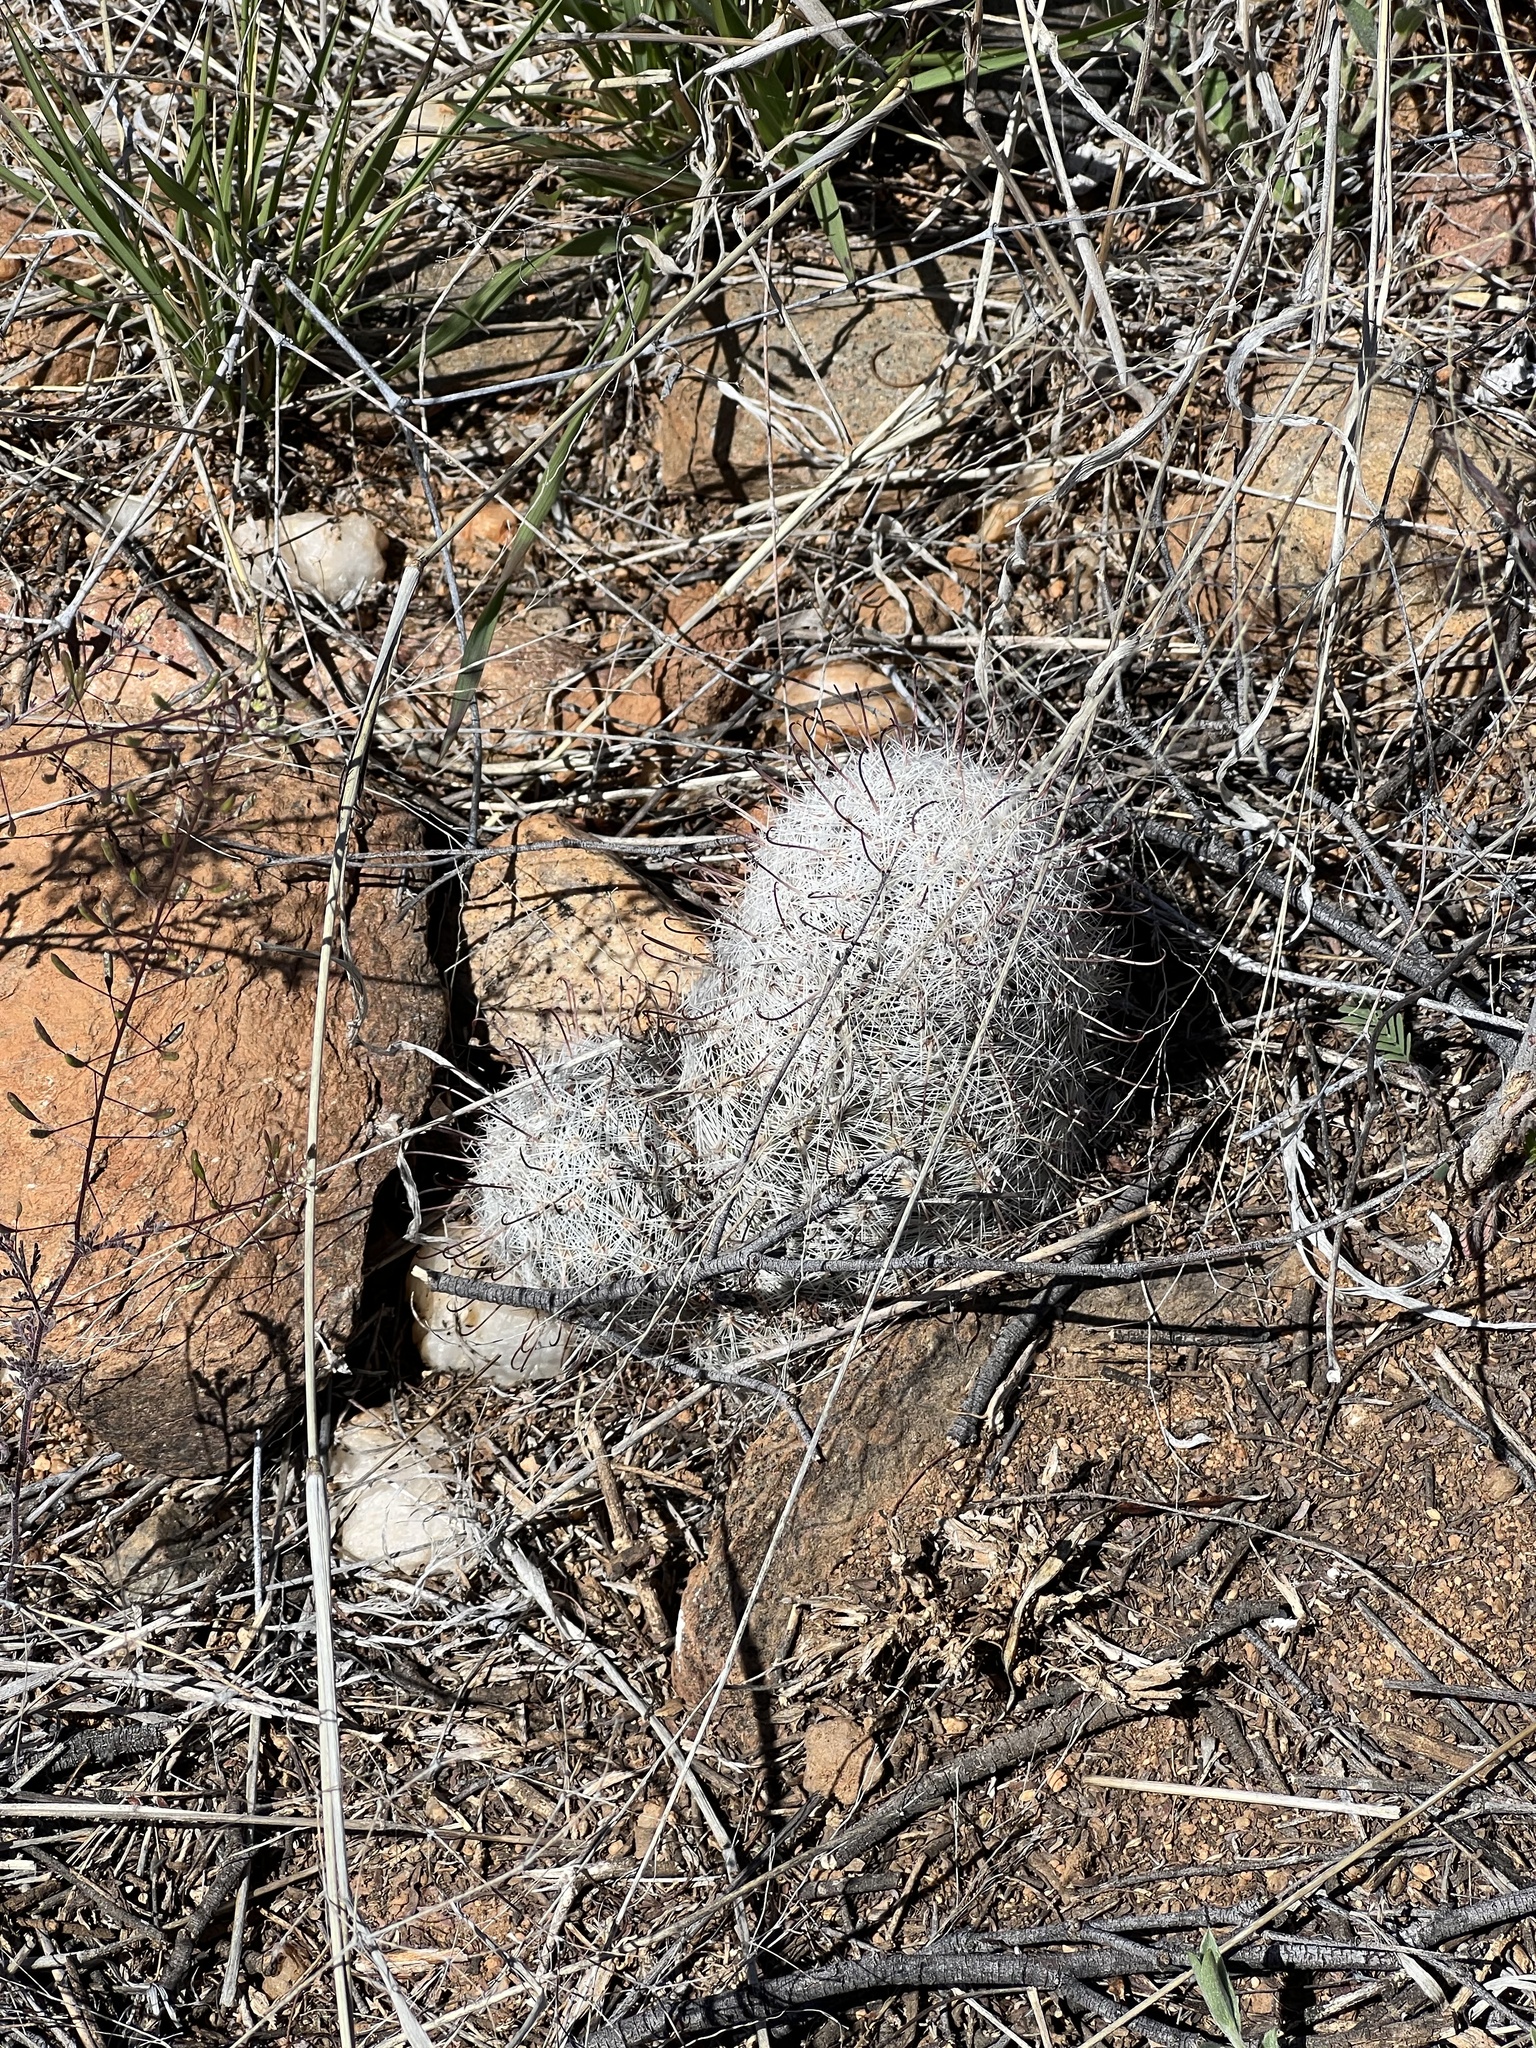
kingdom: Plantae
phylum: Tracheophyta
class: Magnoliopsida
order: Caryophyllales
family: Cactaceae
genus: Cochemiea
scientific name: Cochemiea grahamii
